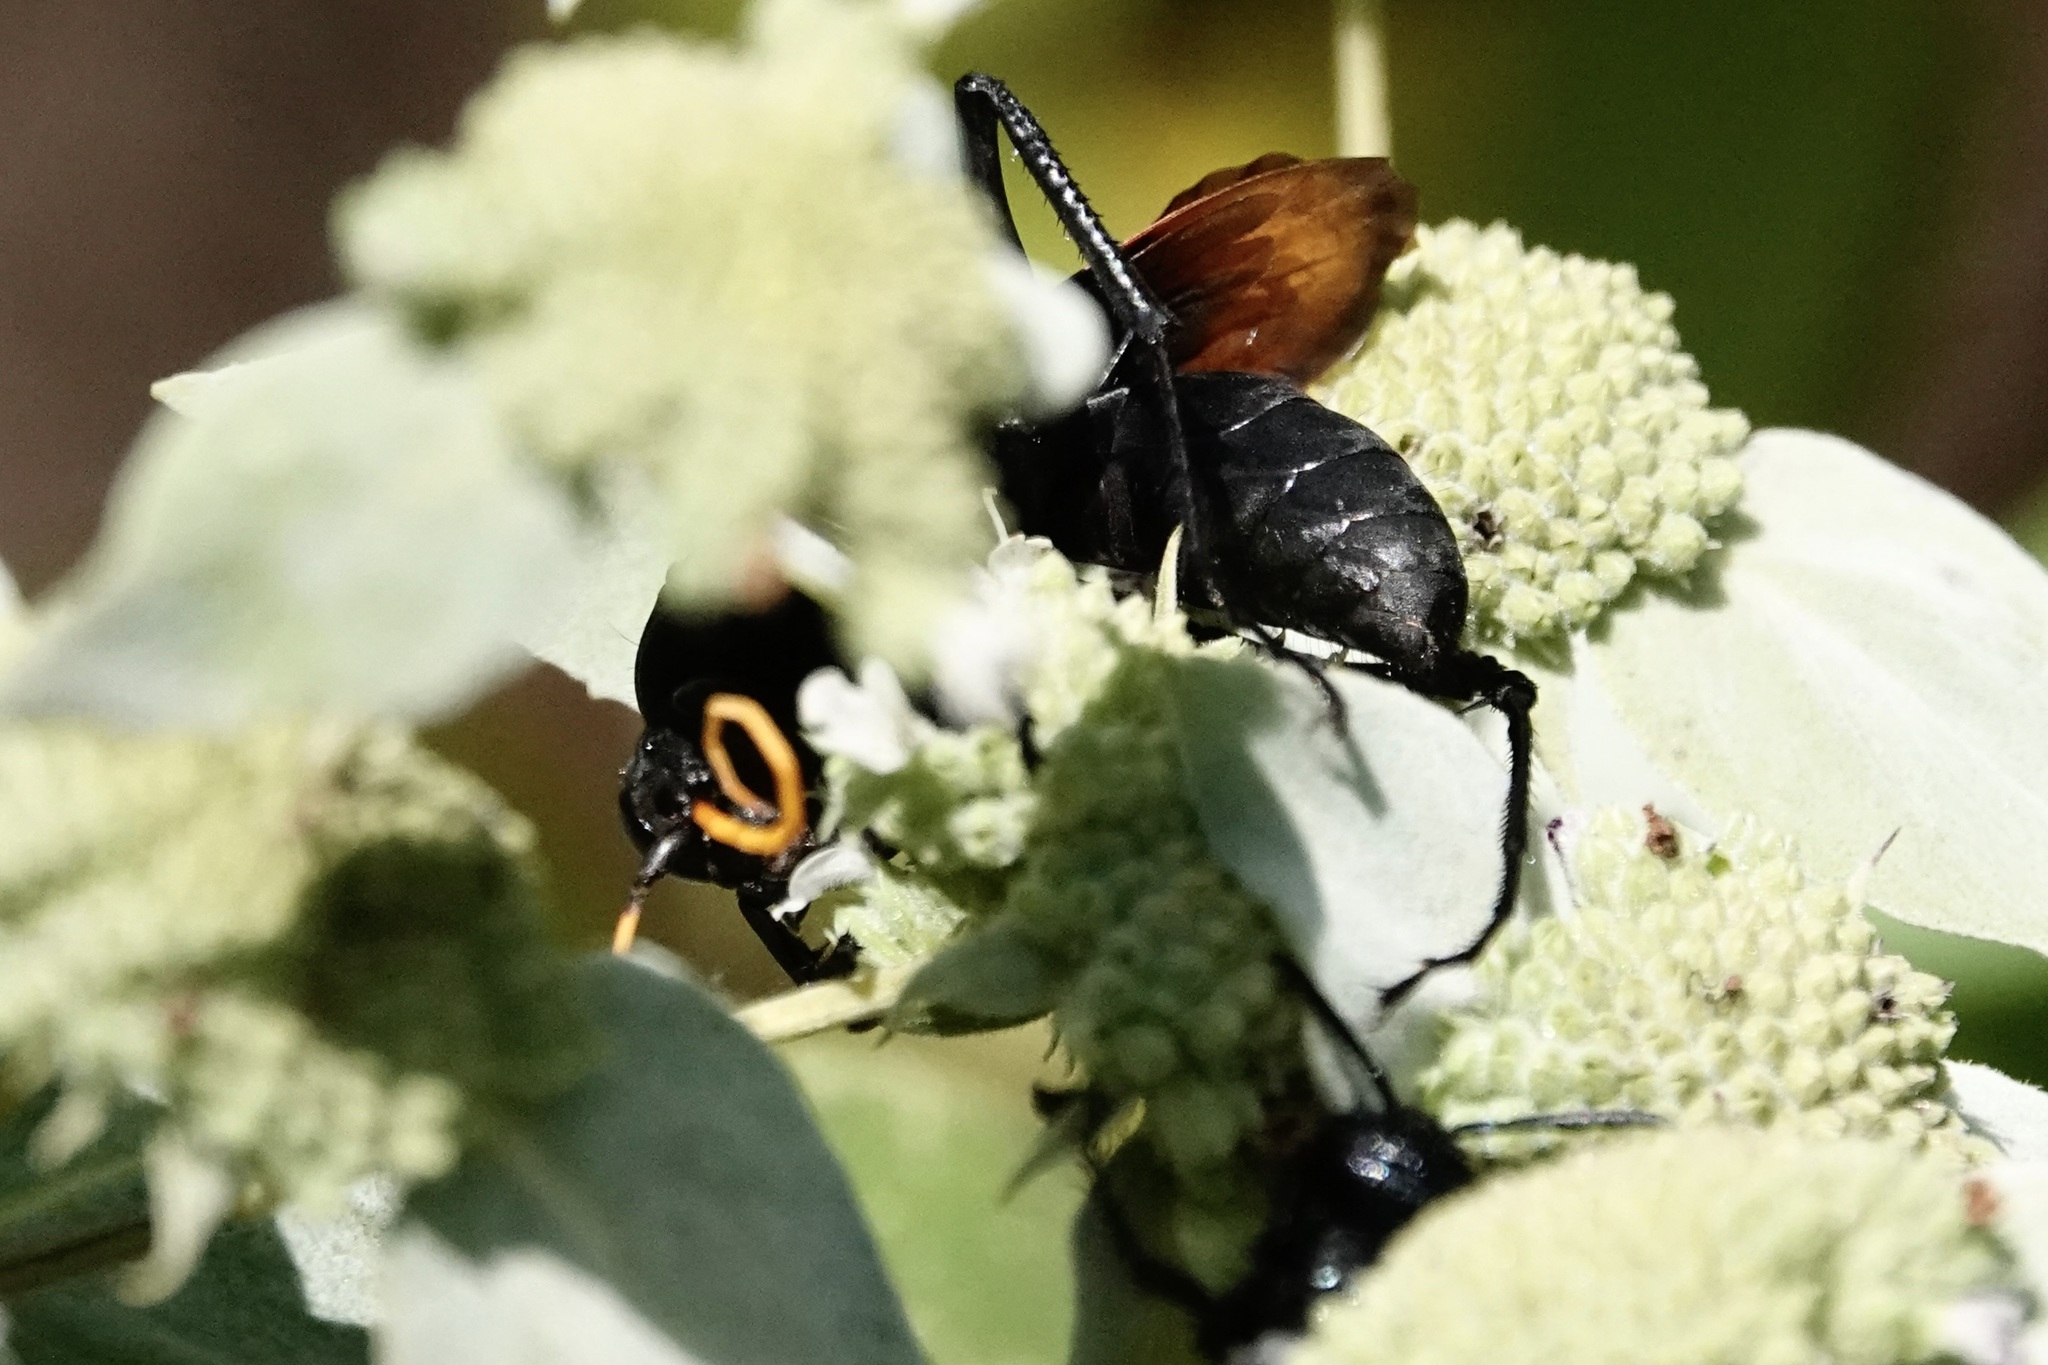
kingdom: Animalia
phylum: Arthropoda
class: Insecta
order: Hymenoptera
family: Pompilidae
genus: Entypus
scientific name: Entypus unifasciatus
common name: Eastern tawny-horned spider wasp
